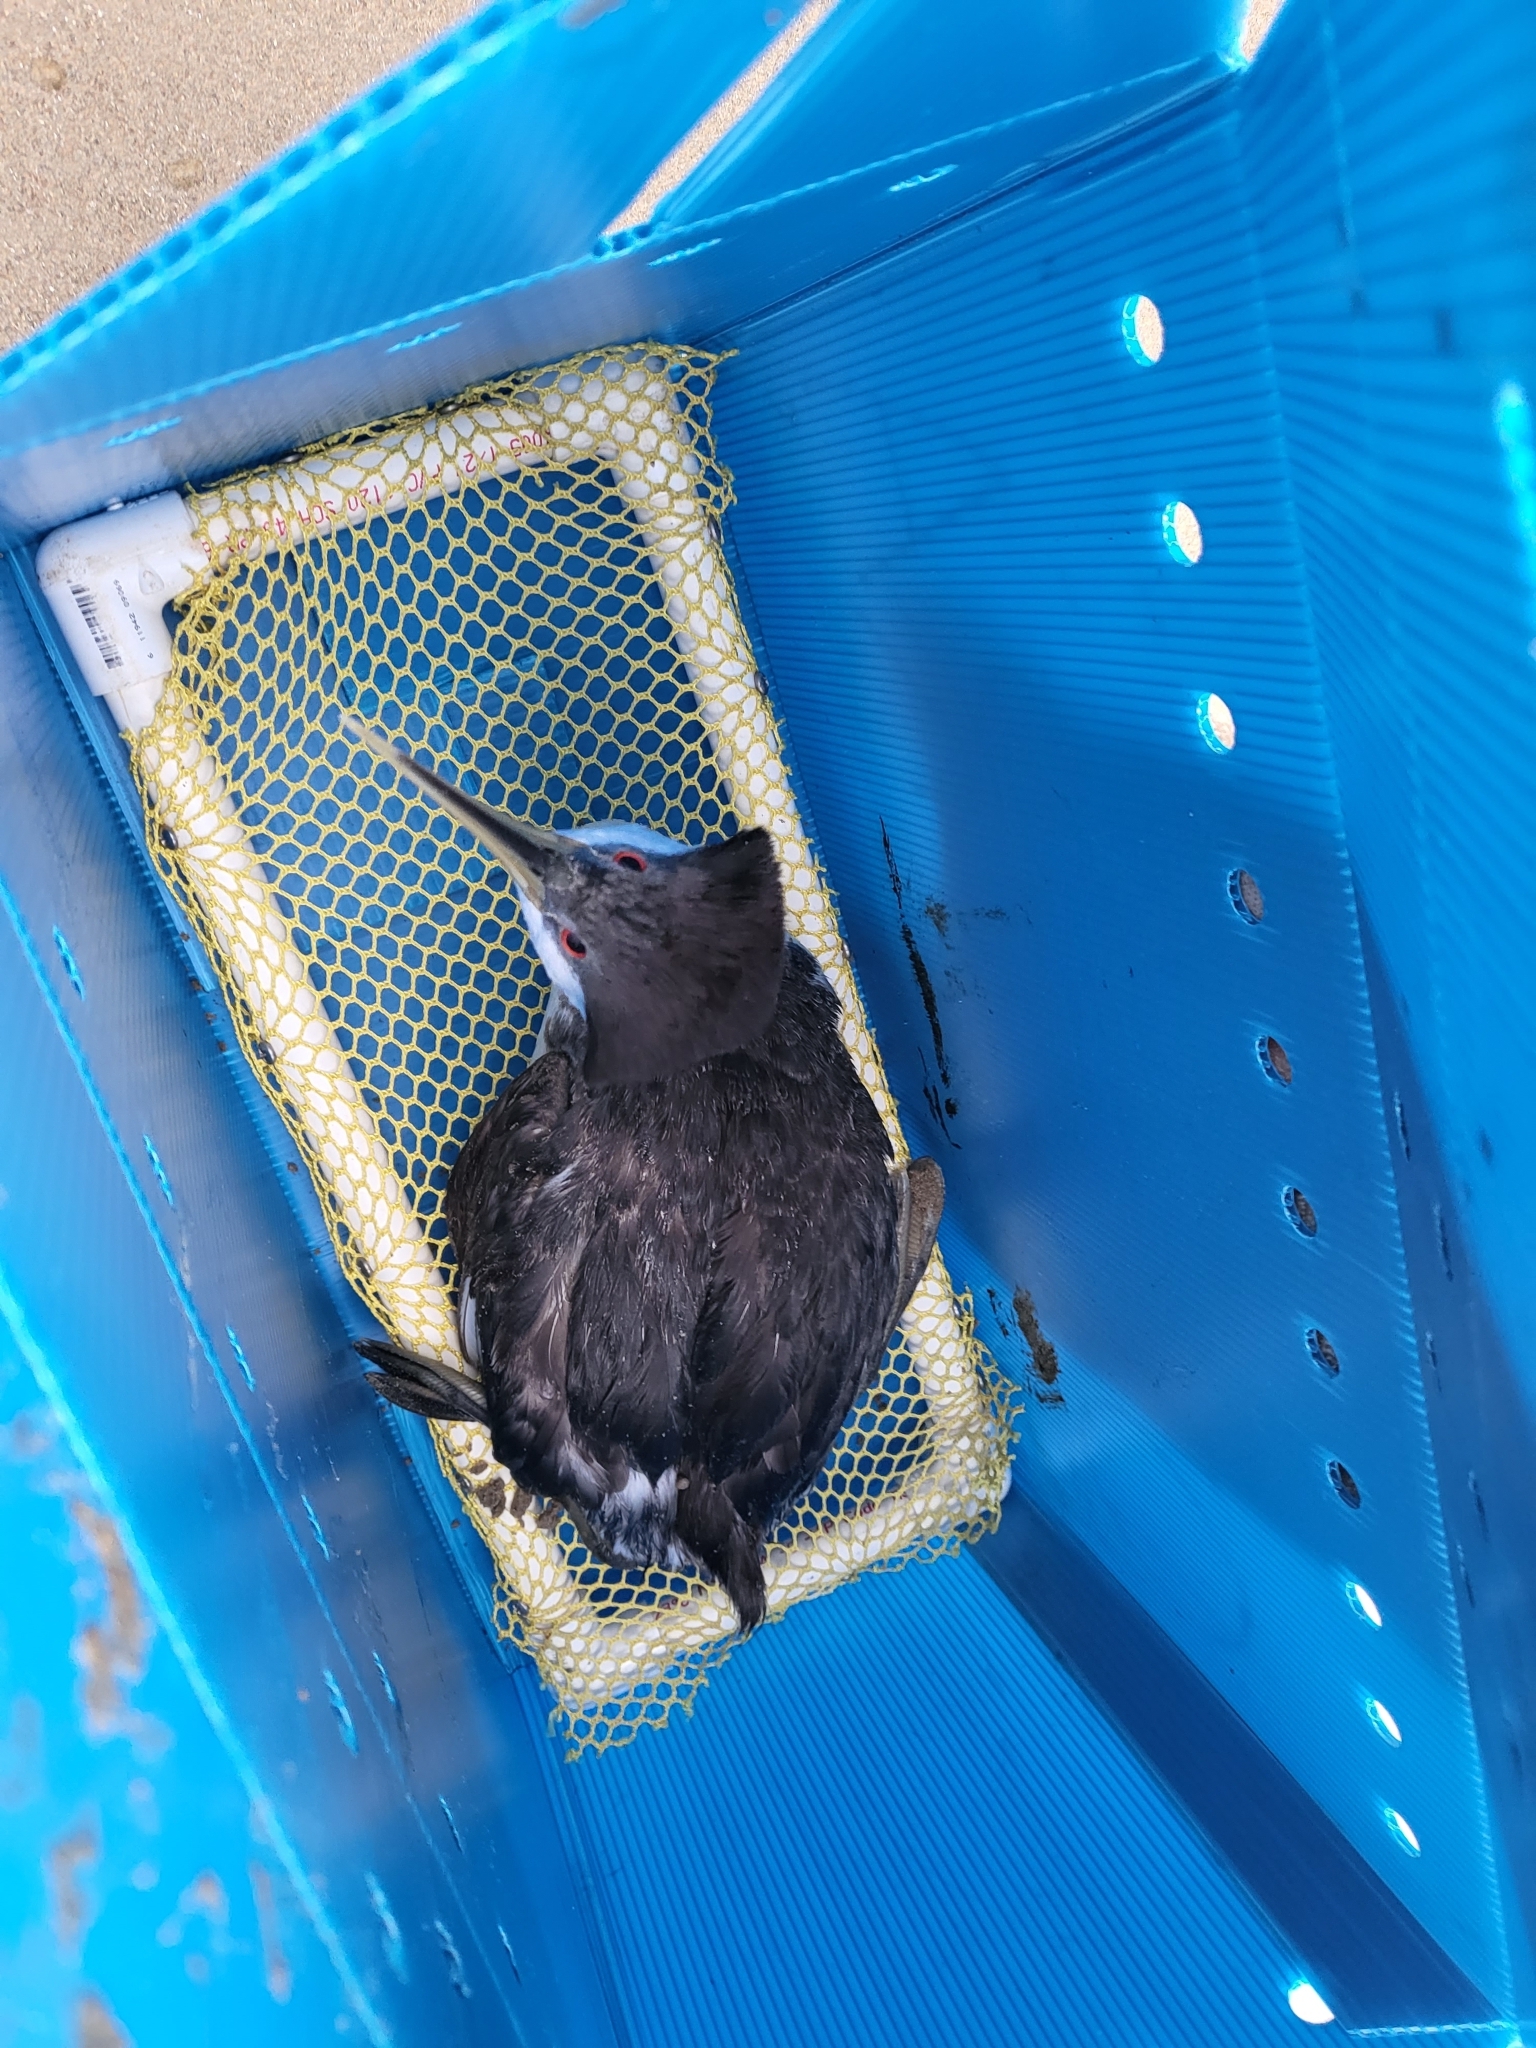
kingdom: Animalia
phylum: Chordata
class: Aves
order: Podicipediformes
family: Podicipedidae
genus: Aechmophorus
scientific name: Aechmophorus occidentalis
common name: Western grebe
